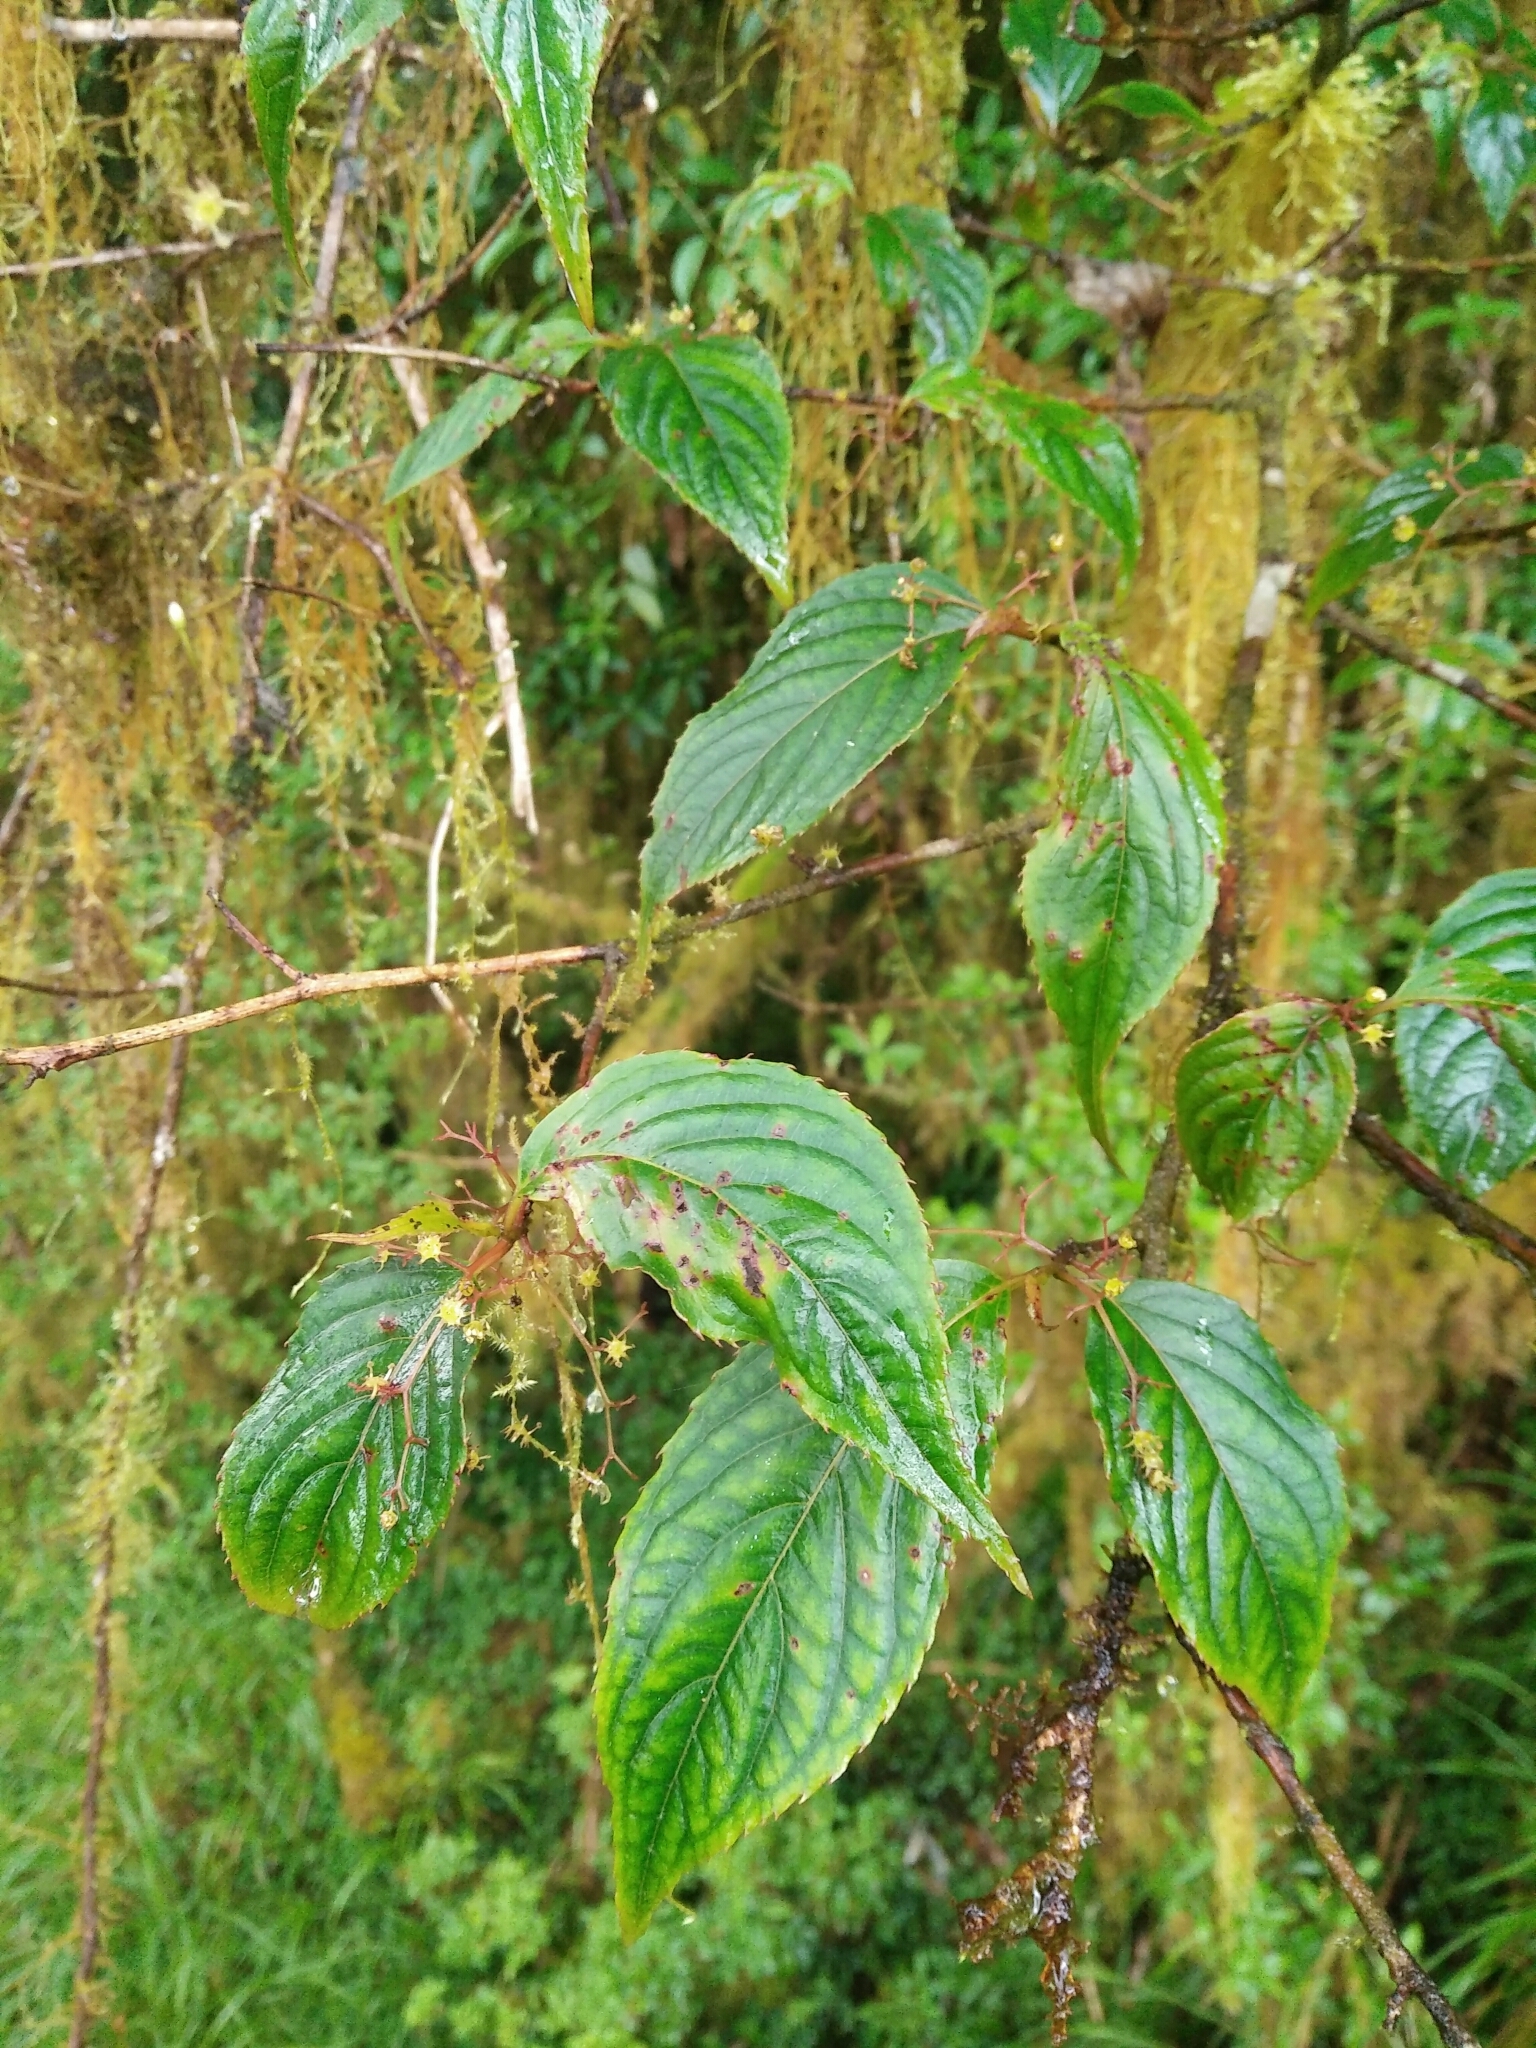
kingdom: Plantae
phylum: Tracheophyta
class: Magnoliopsida
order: Huerteales
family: Dipentodontaceae
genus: Perrottetia
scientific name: Perrottetia arisanensis
